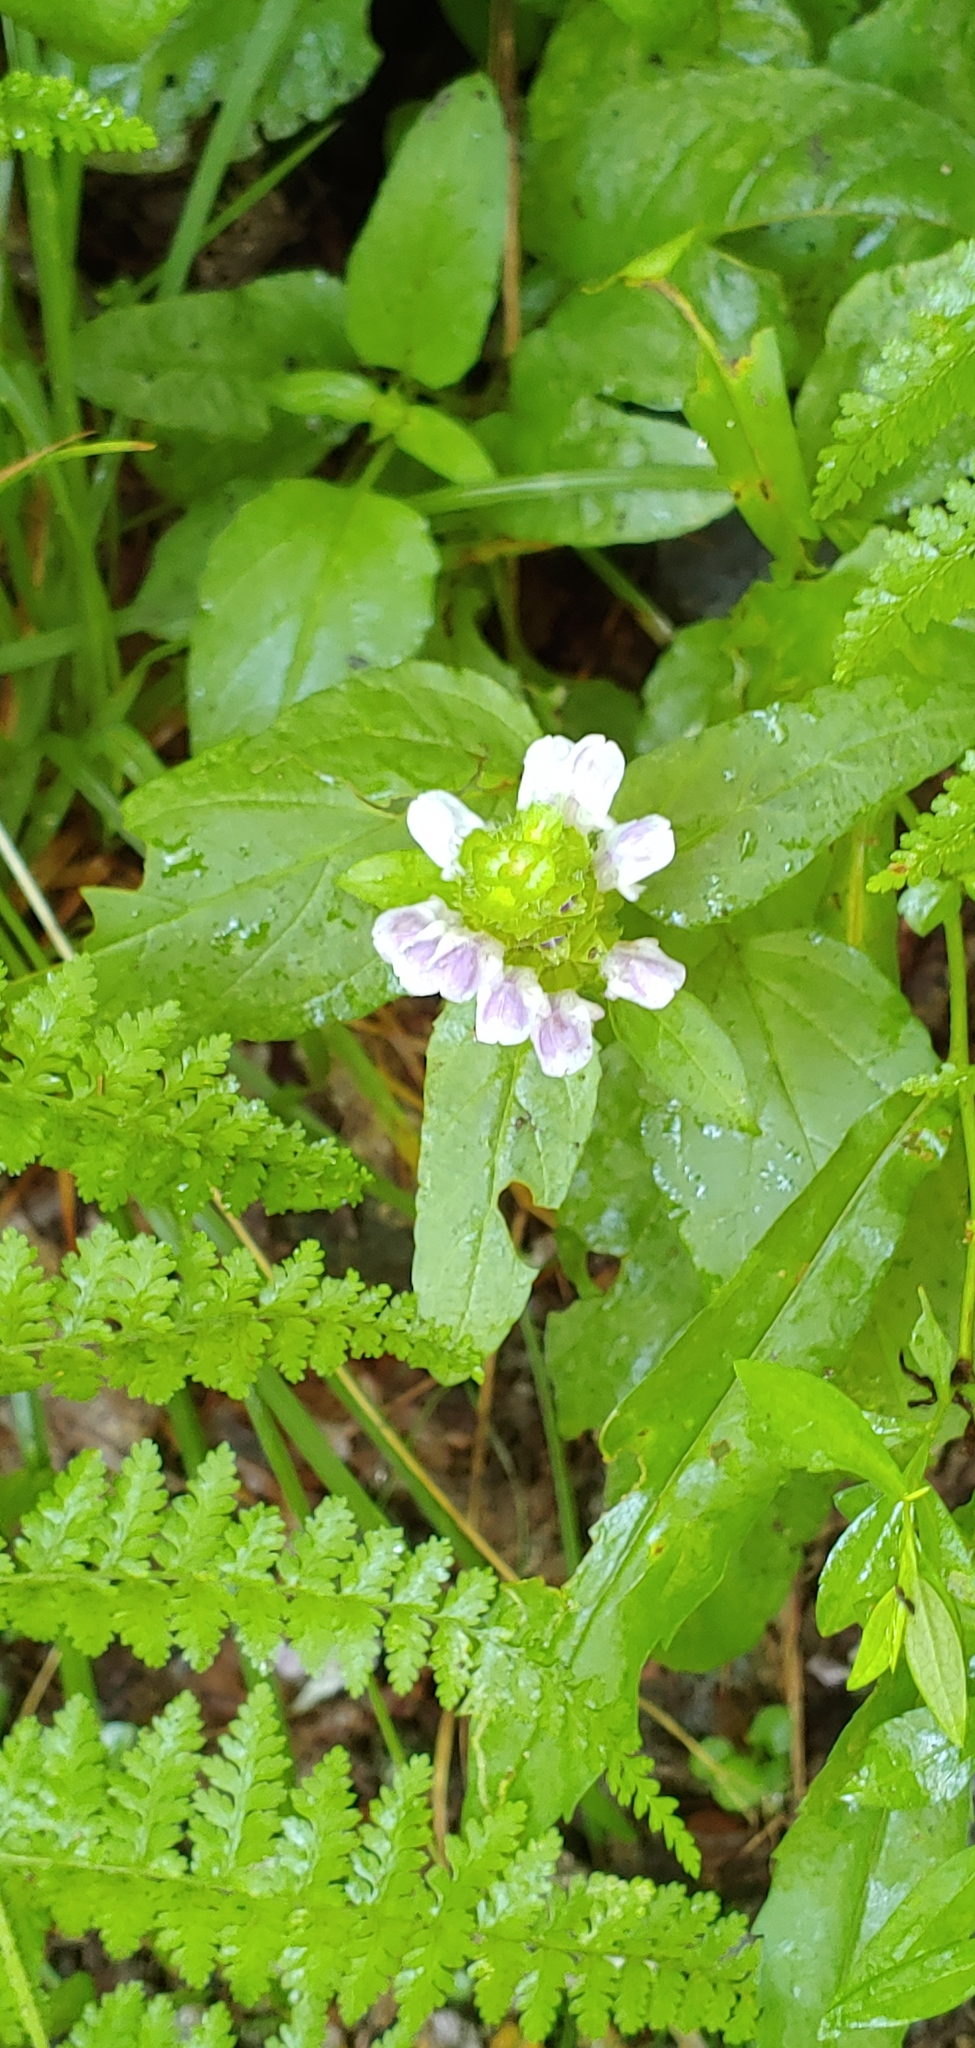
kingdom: Plantae
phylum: Tracheophyta
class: Magnoliopsida
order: Lamiales
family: Lamiaceae
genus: Prunella
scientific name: Prunella vulgaris
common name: Heal-all
